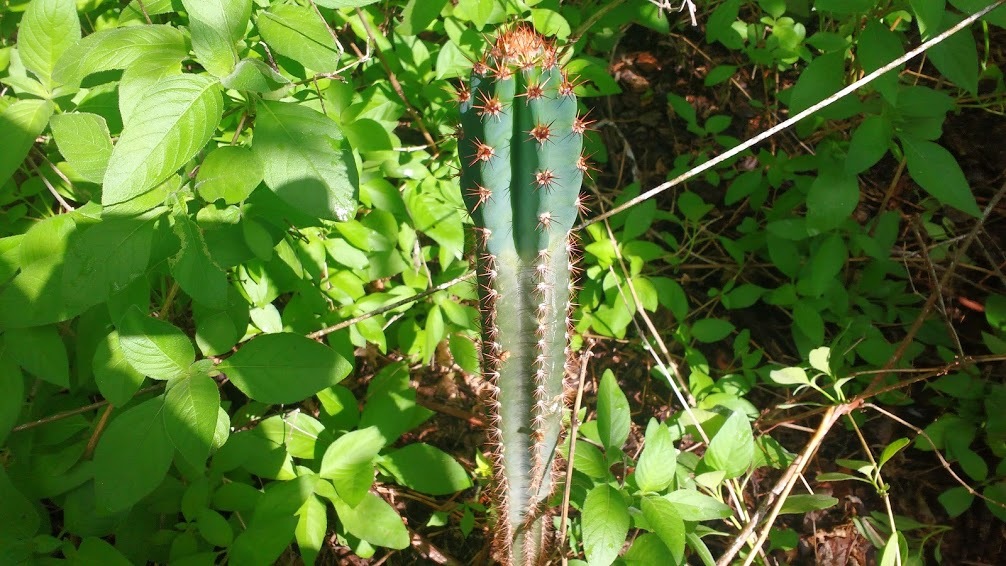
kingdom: Plantae
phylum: Tracheophyta
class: Magnoliopsida
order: Caryophyllales
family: Cactaceae
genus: Cereus
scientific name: Cereus jamacaru
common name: Queen-of-the-night
